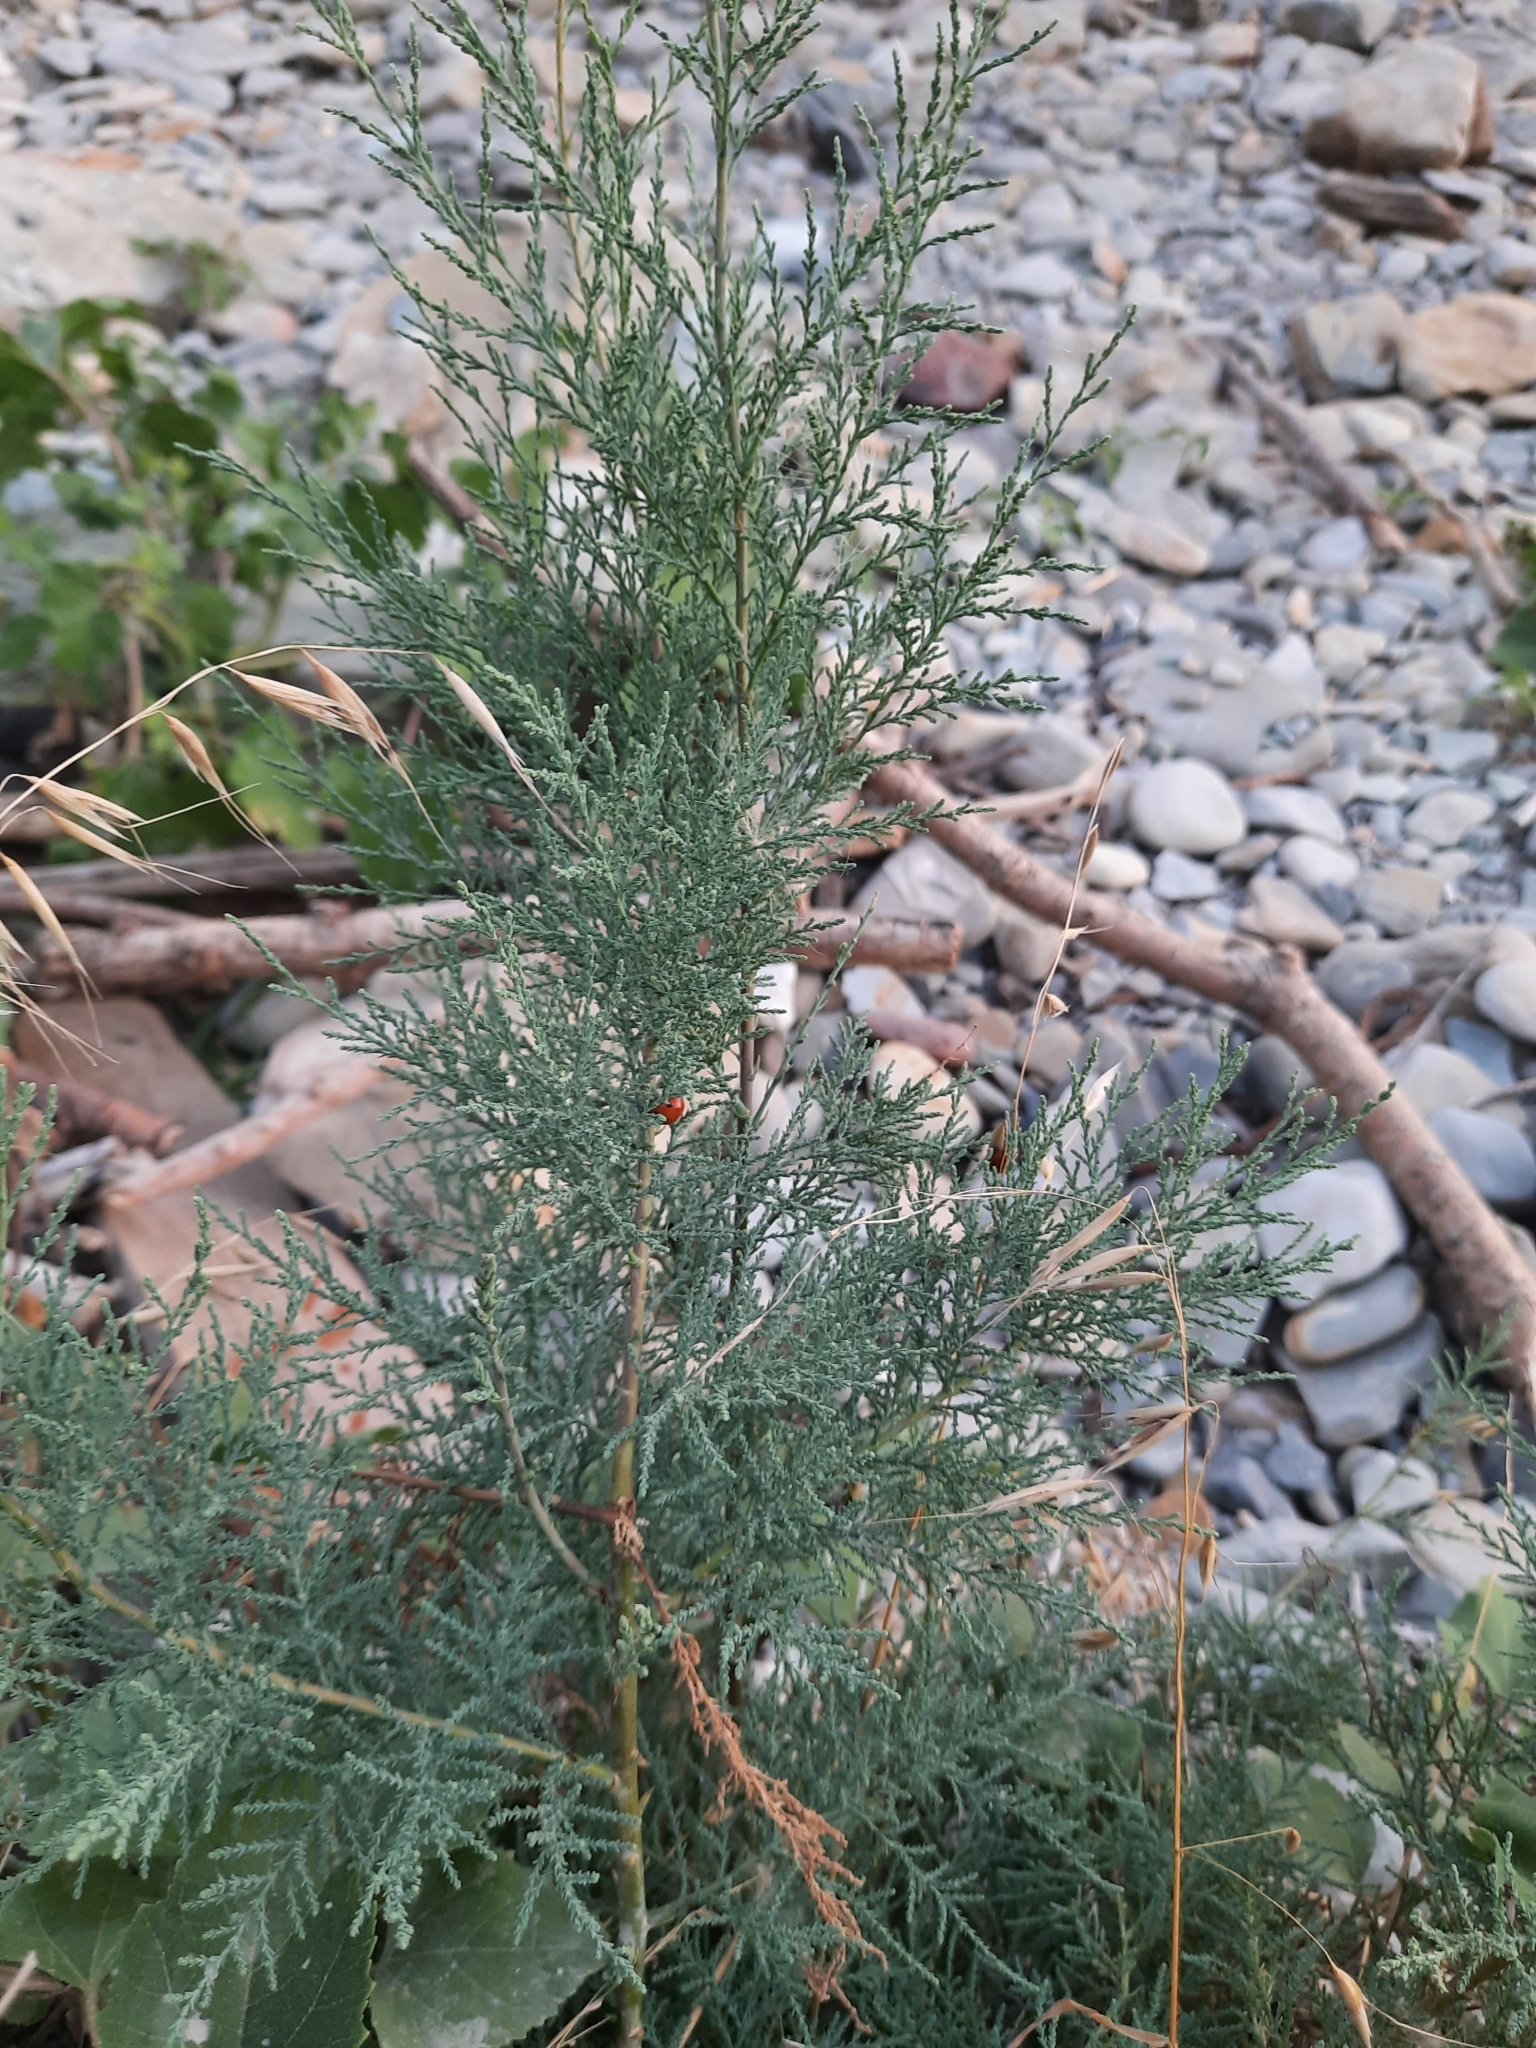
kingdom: Plantae
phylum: Tracheophyta
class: Magnoliopsida
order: Caryophyllales
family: Tamaricaceae
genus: Tamarix
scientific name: Tamarix ramosissima
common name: Pink tamarisk
